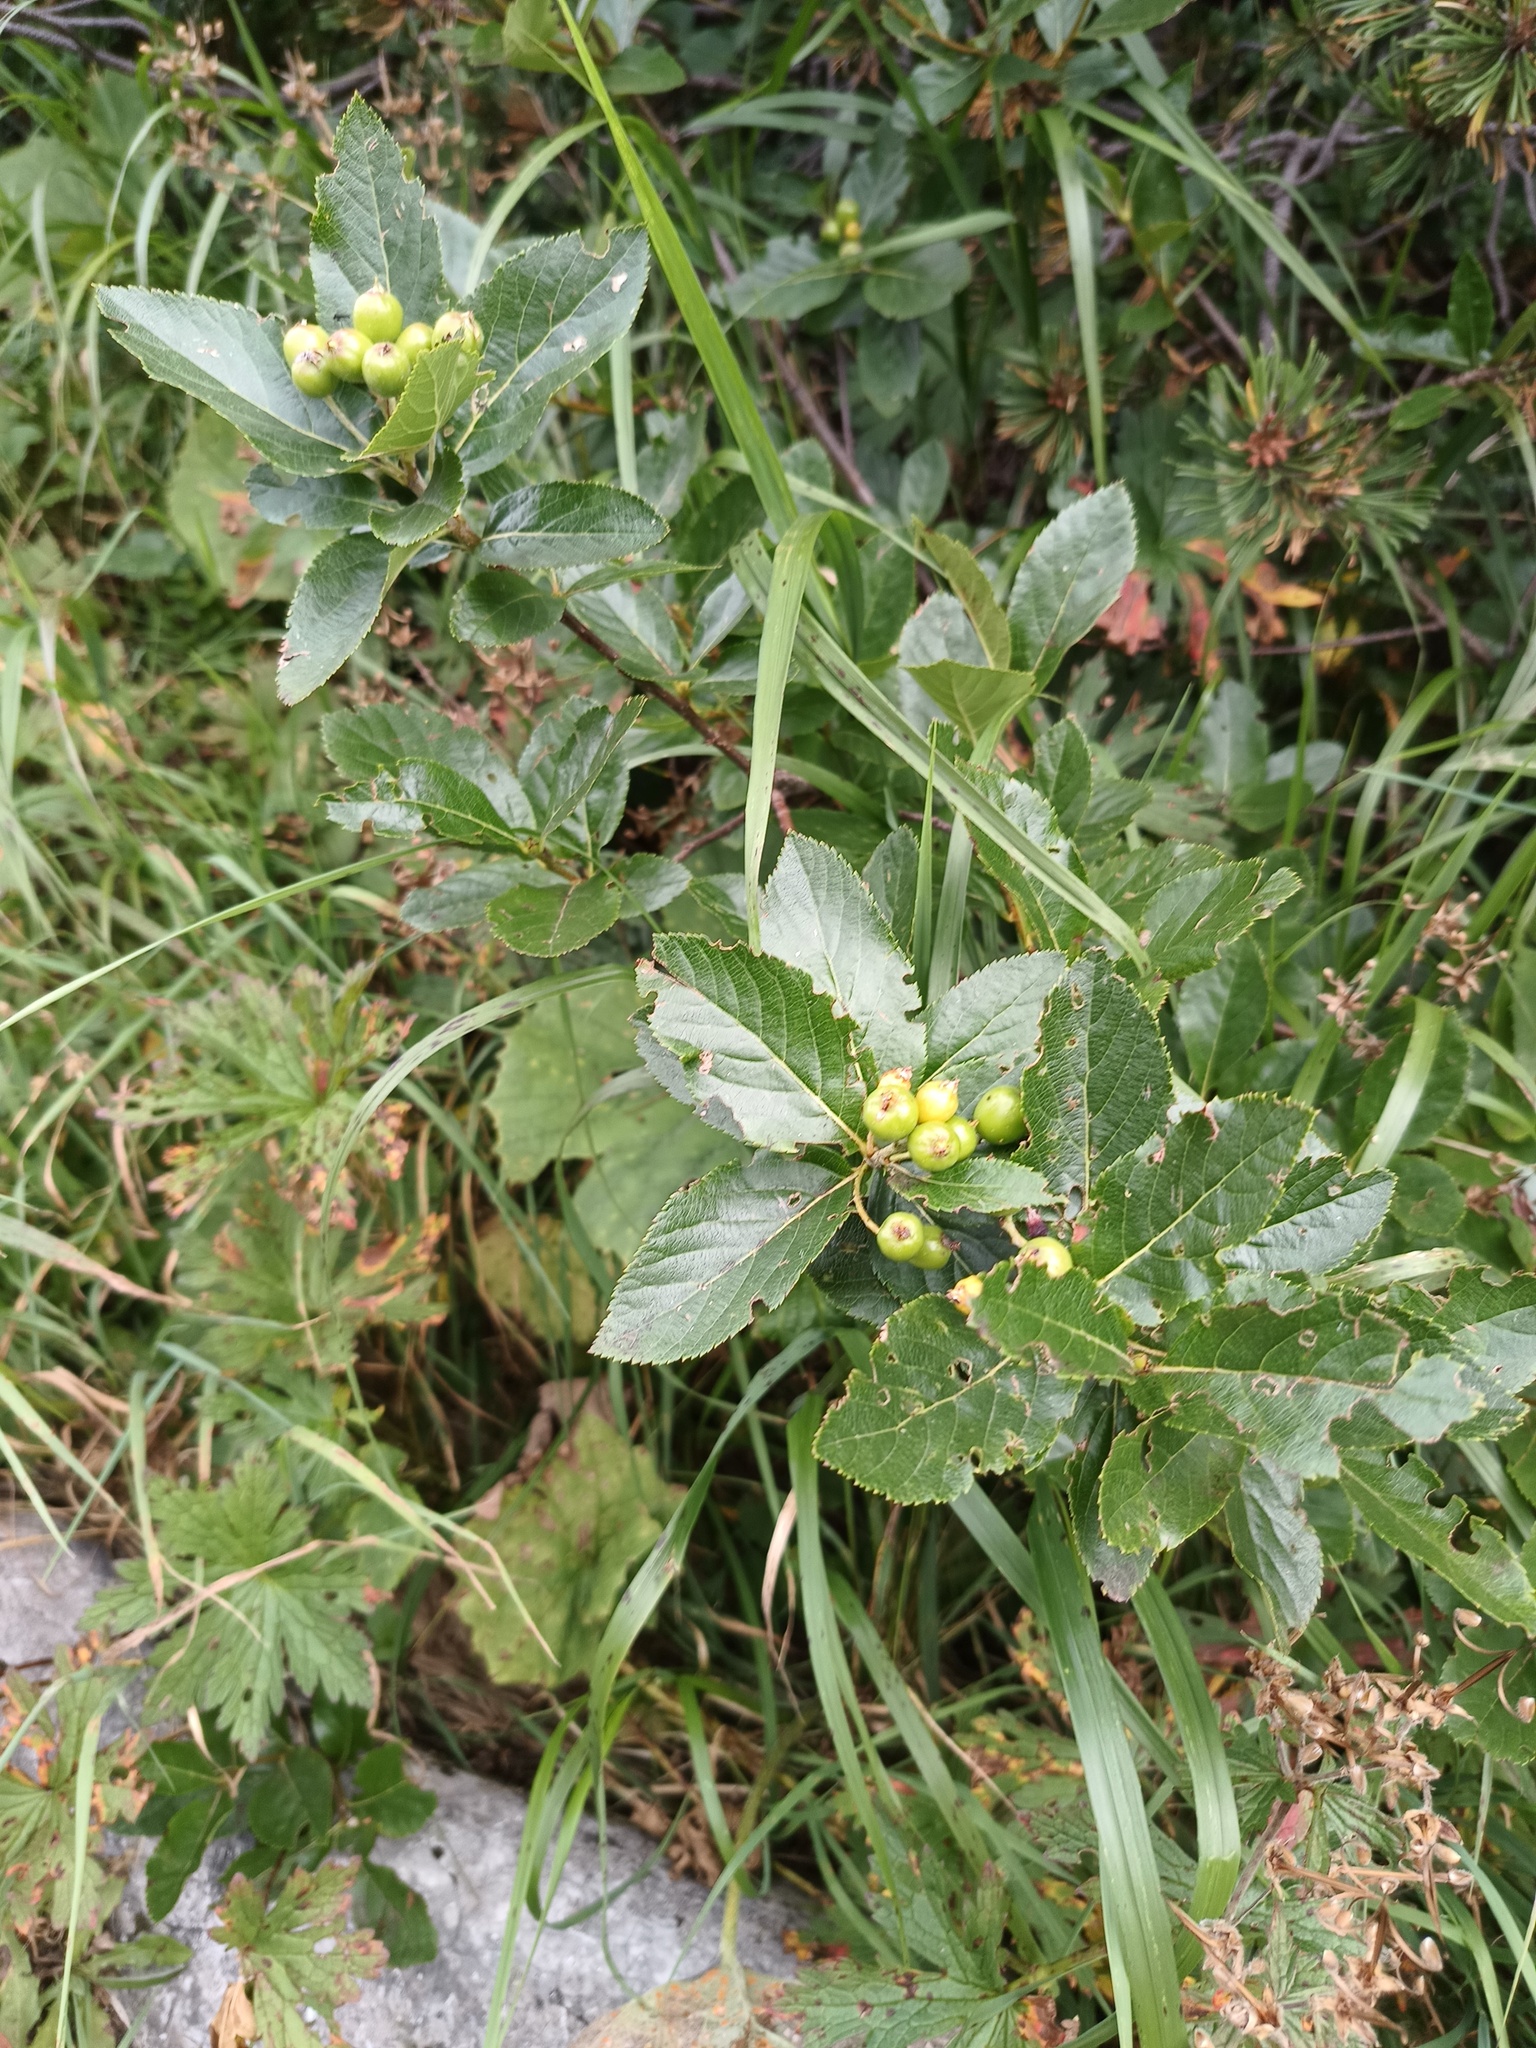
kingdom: Plantae
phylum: Tracheophyta
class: Magnoliopsida
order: Rosales
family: Rosaceae
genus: Chamaemespilus
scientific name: Chamaemespilus alpina
